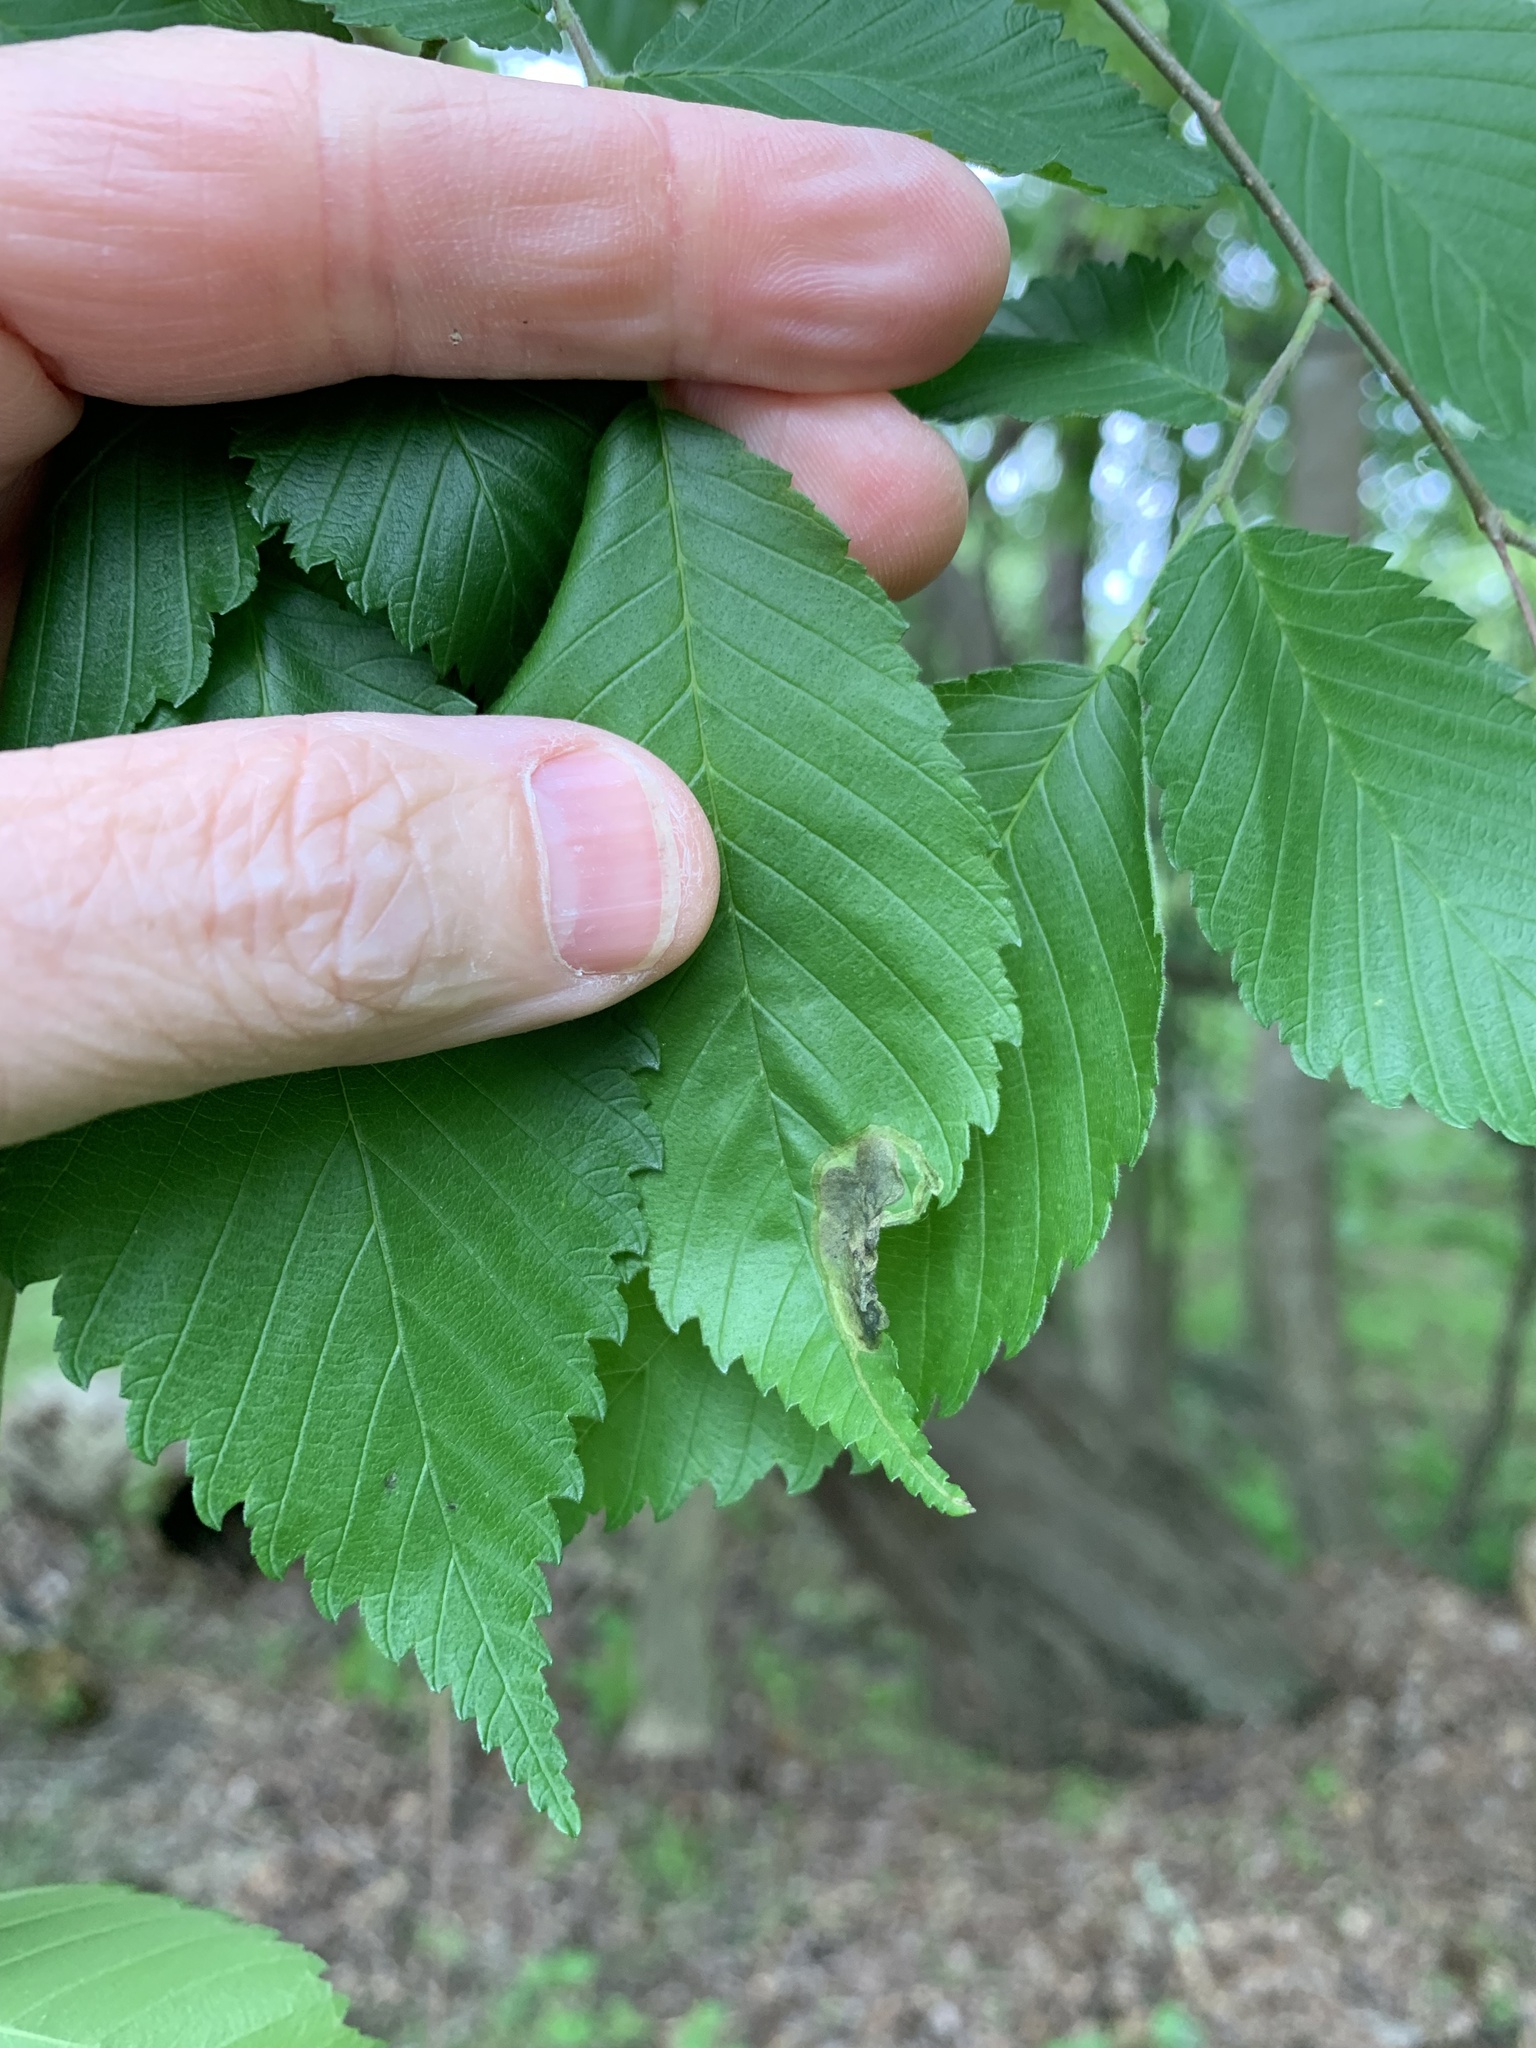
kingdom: Animalia
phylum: Arthropoda
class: Insecta
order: Diptera
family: Agromyzidae
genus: Agromyza
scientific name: Agromyza aristata
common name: Elm agromyzid leafminer
